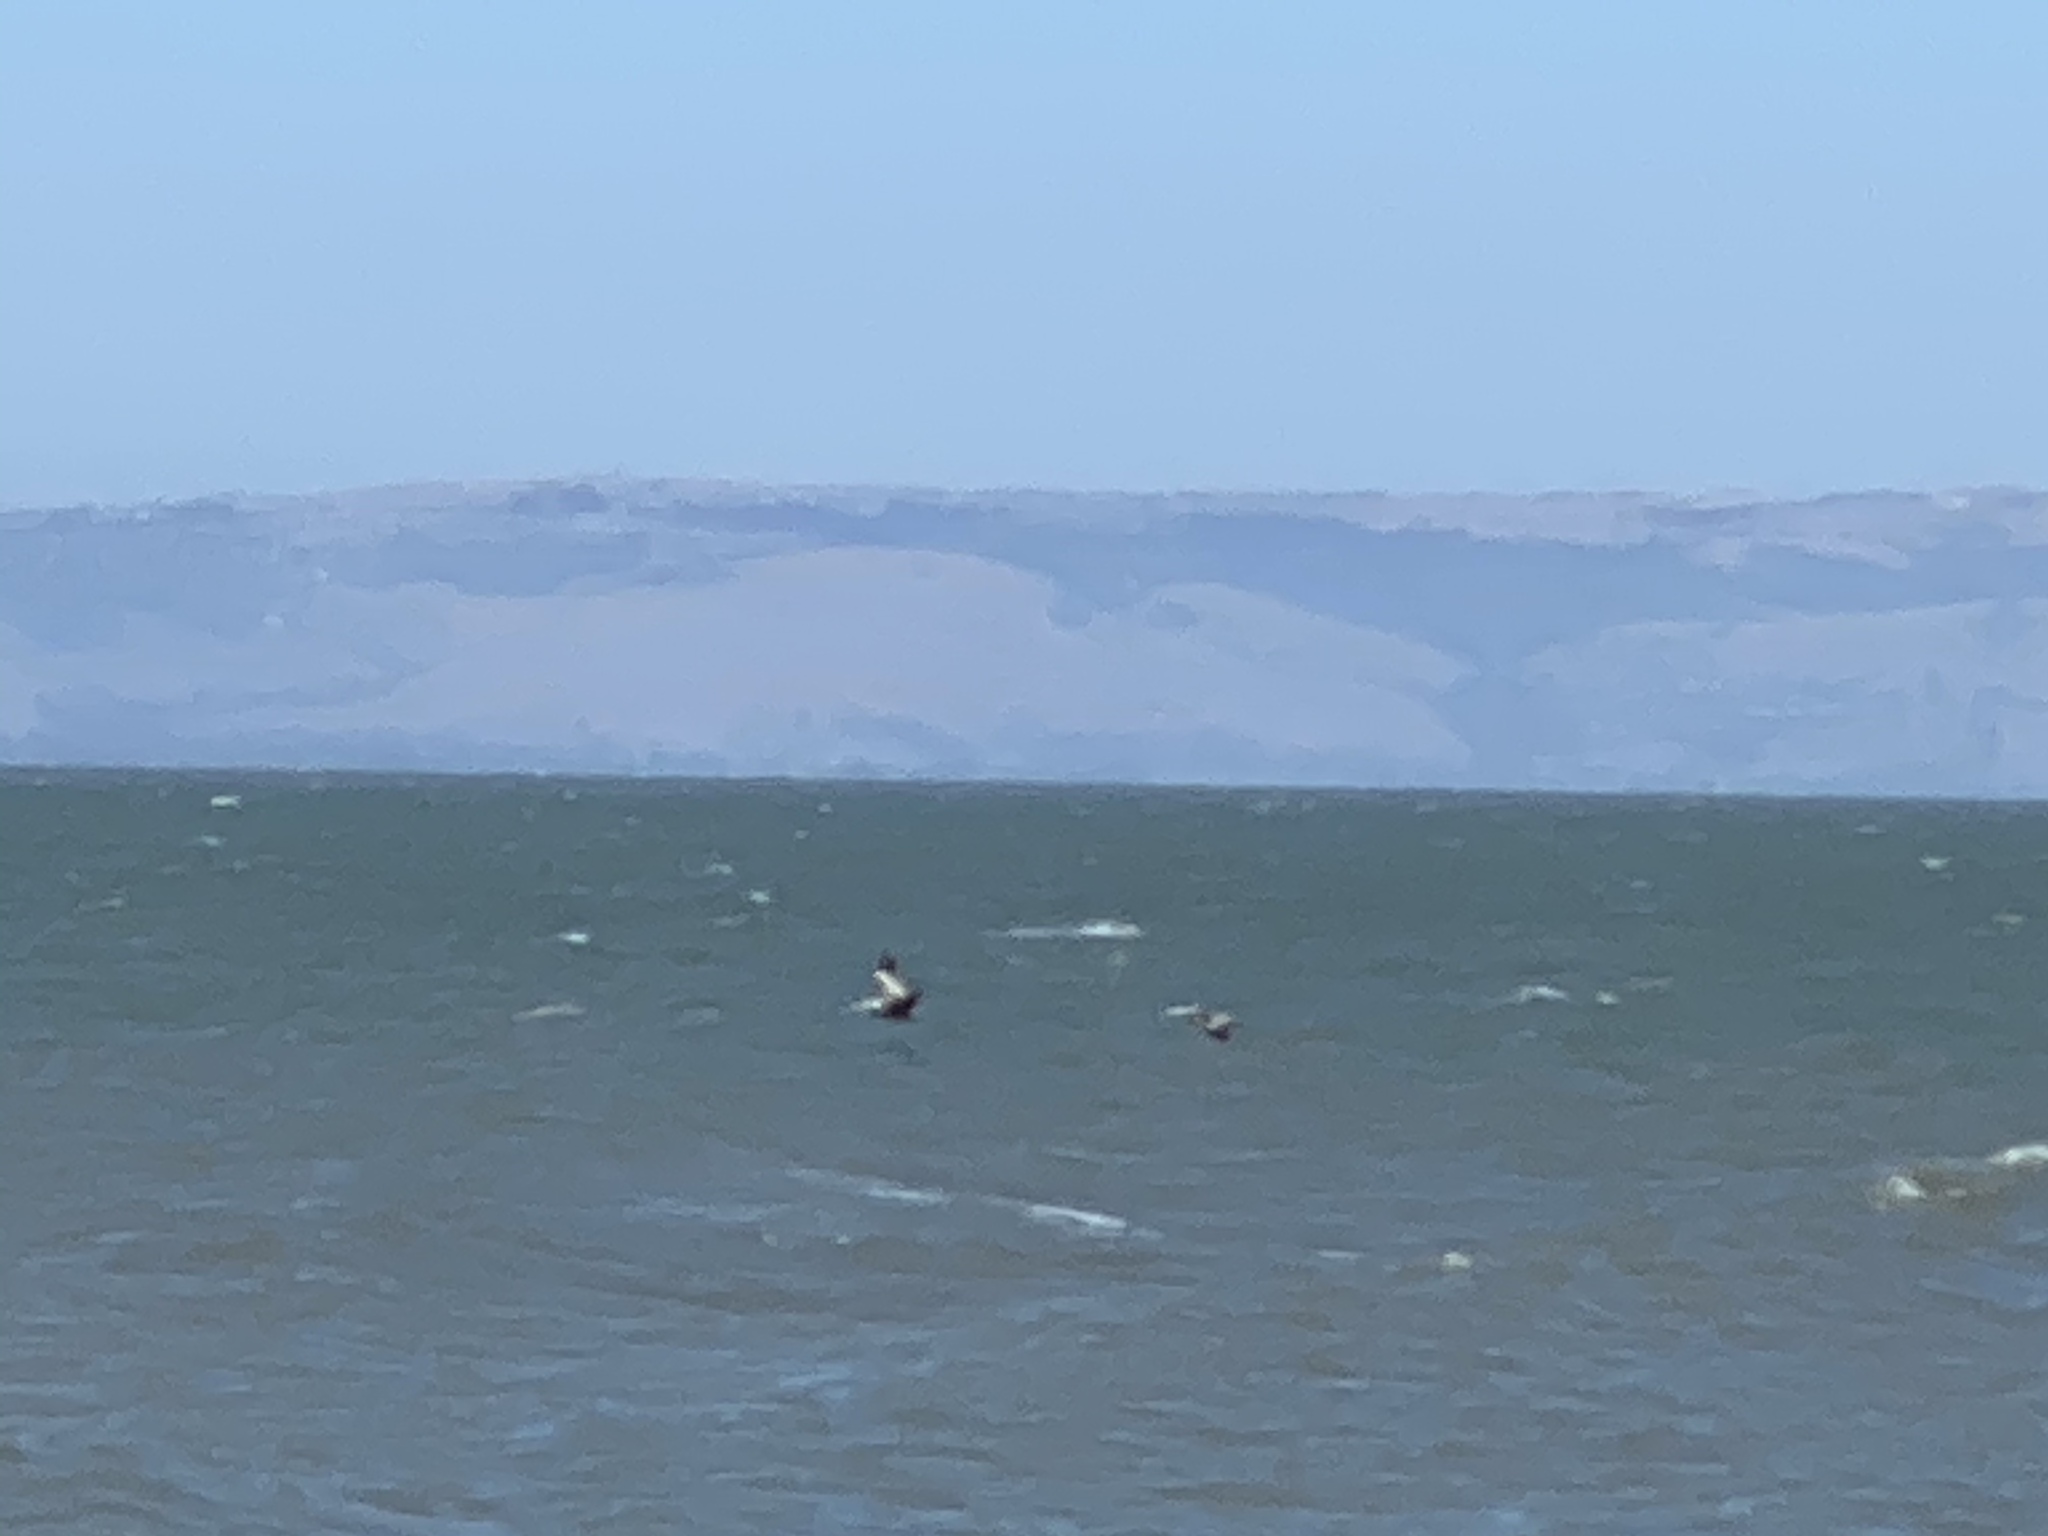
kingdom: Animalia
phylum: Chordata
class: Aves
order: Pelecaniformes
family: Pelecanidae
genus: Pelecanus
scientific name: Pelecanus occidentalis
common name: Brown pelican
